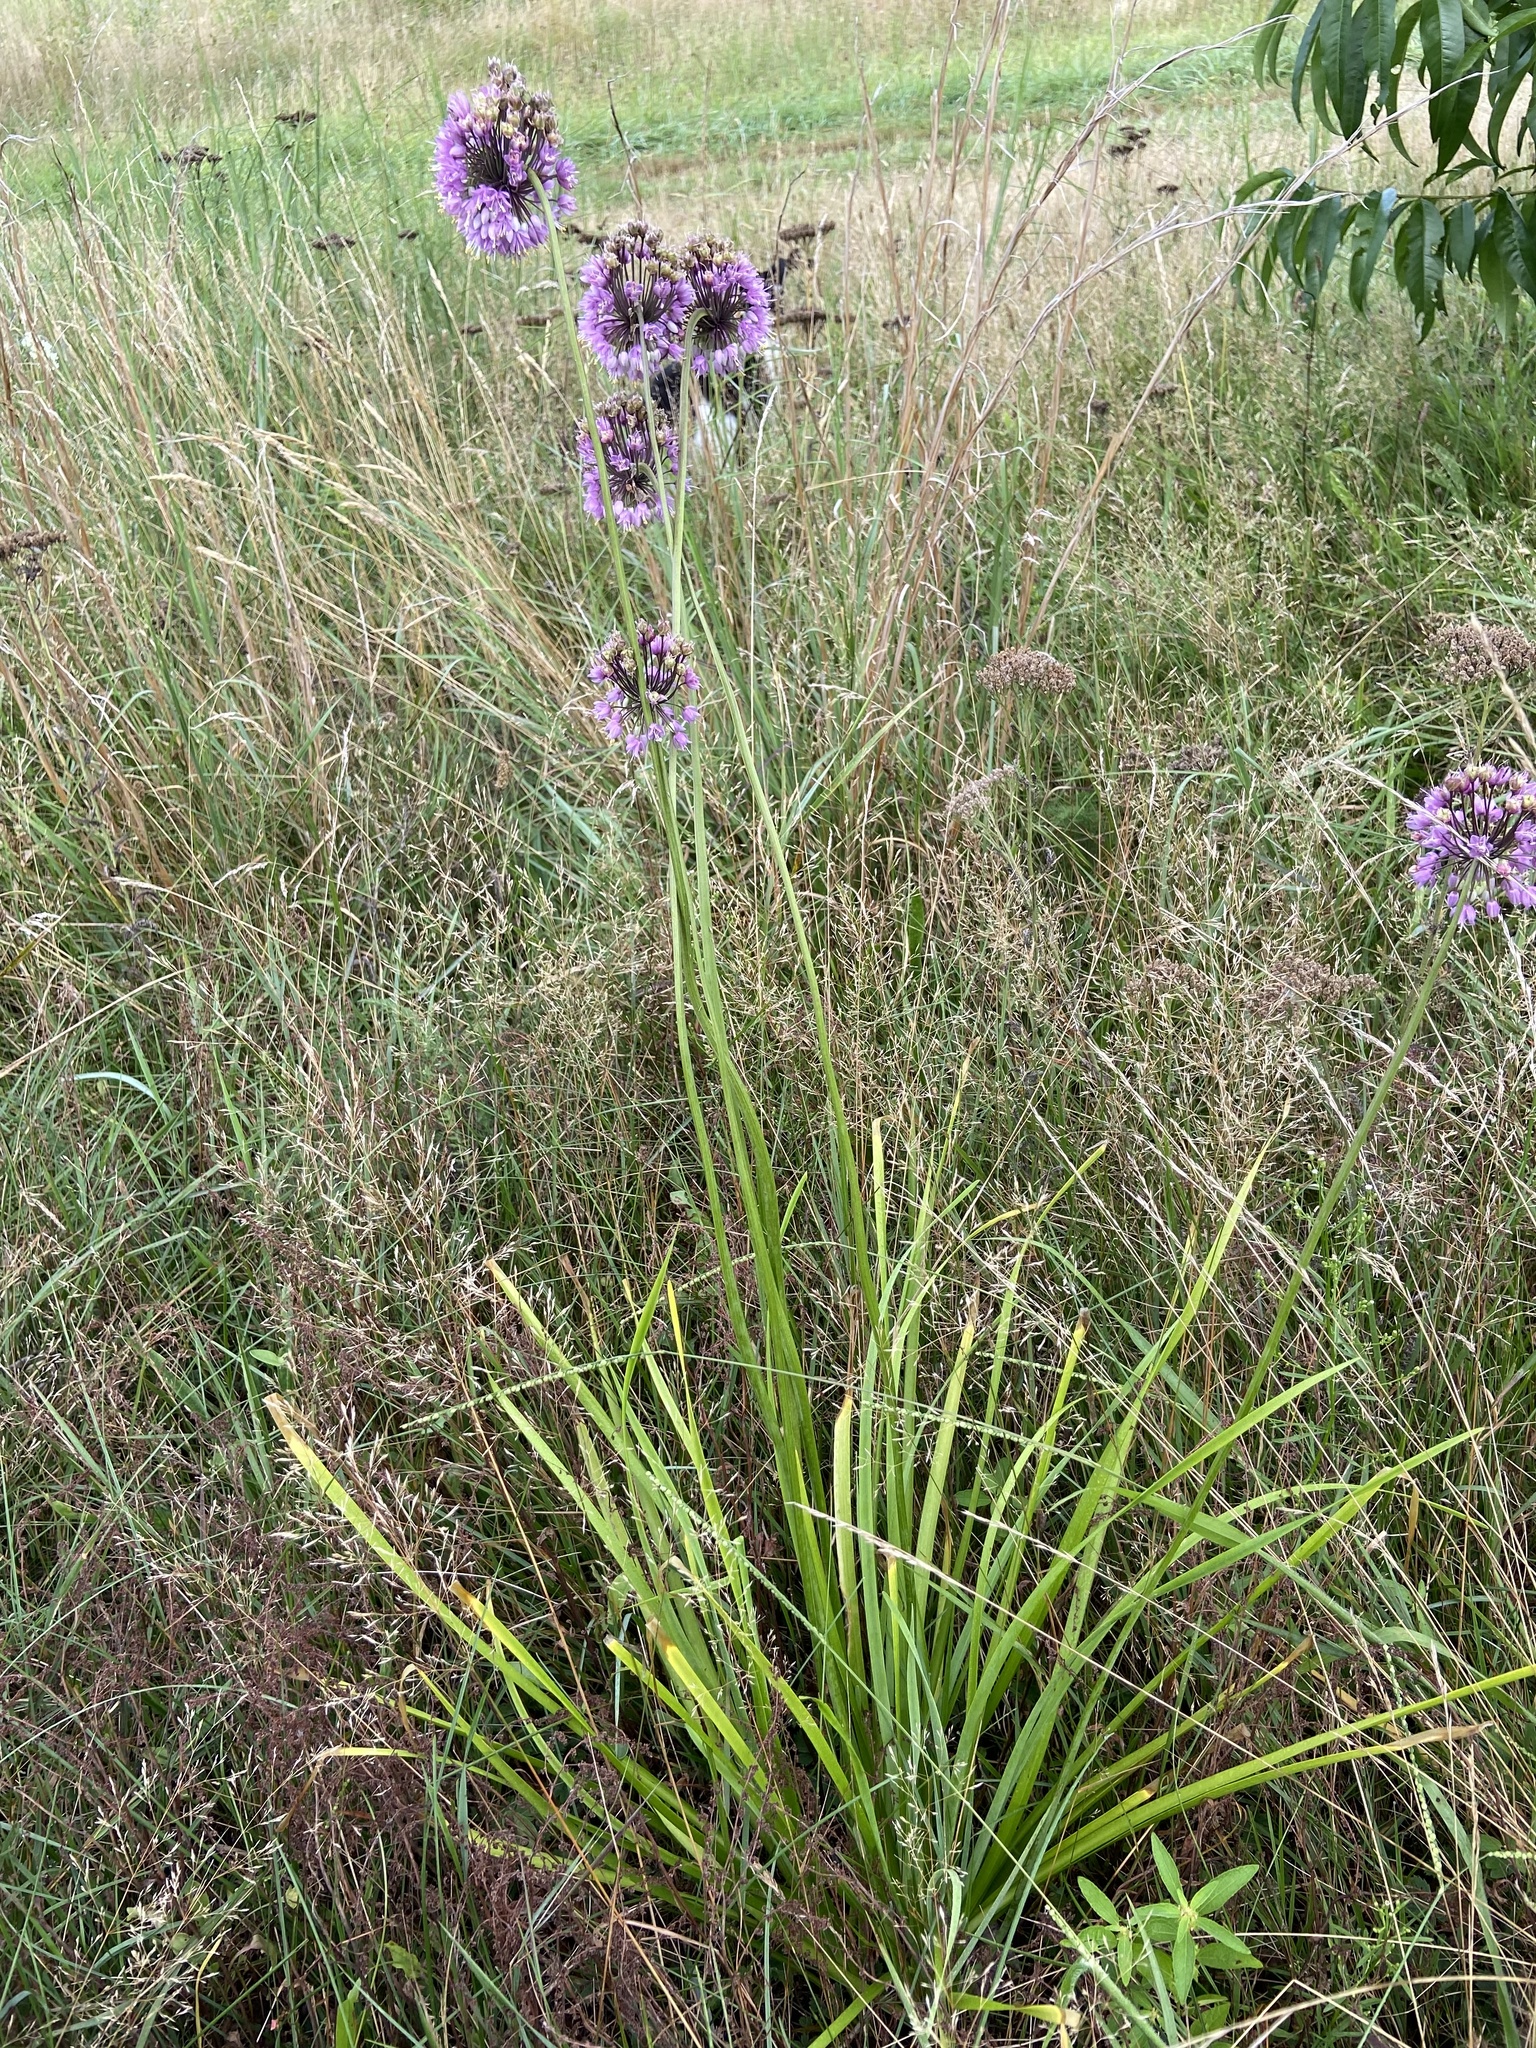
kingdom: Plantae
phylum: Tracheophyta
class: Liliopsida
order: Asparagales
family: Amaryllidaceae
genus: Allium
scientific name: Allium cernuum
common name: Nodding onion
